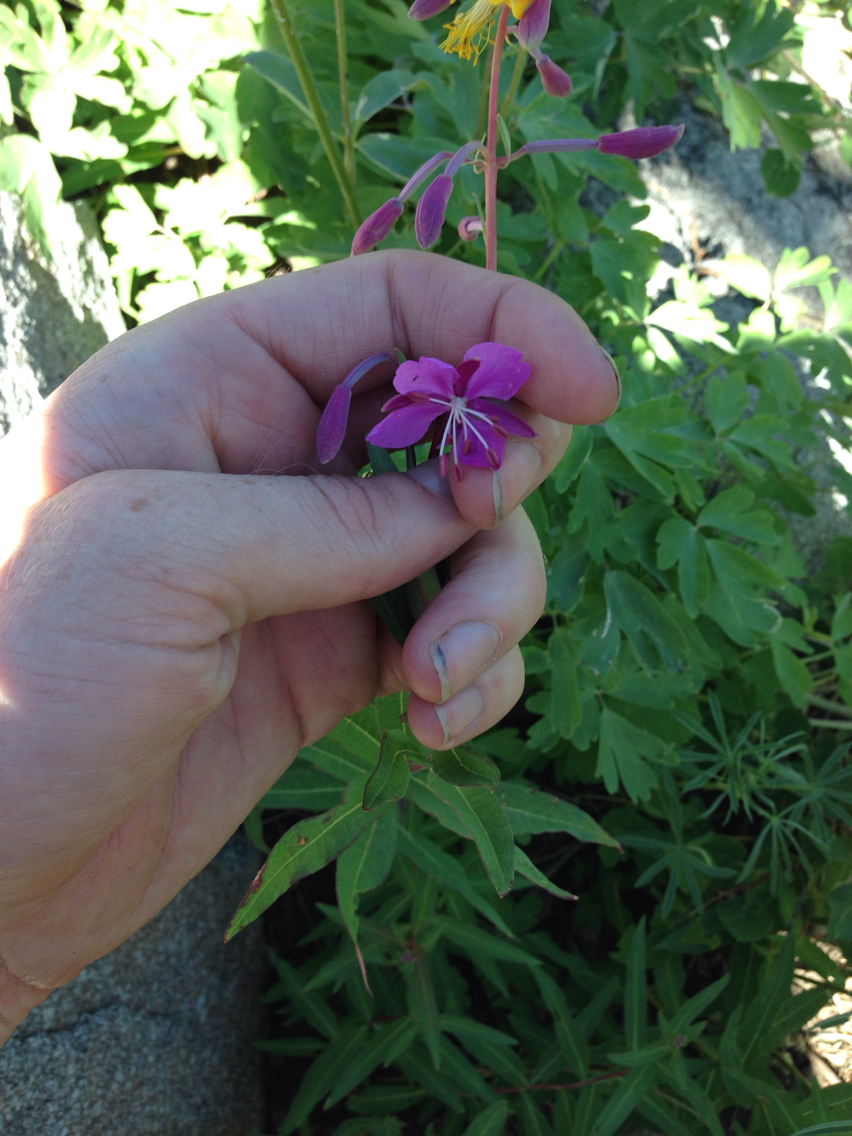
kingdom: Plantae
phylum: Tracheophyta
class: Magnoliopsida
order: Myrtales
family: Onagraceae
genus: Chamaenerion
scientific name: Chamaenerion angustifolium
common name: Fireweed
